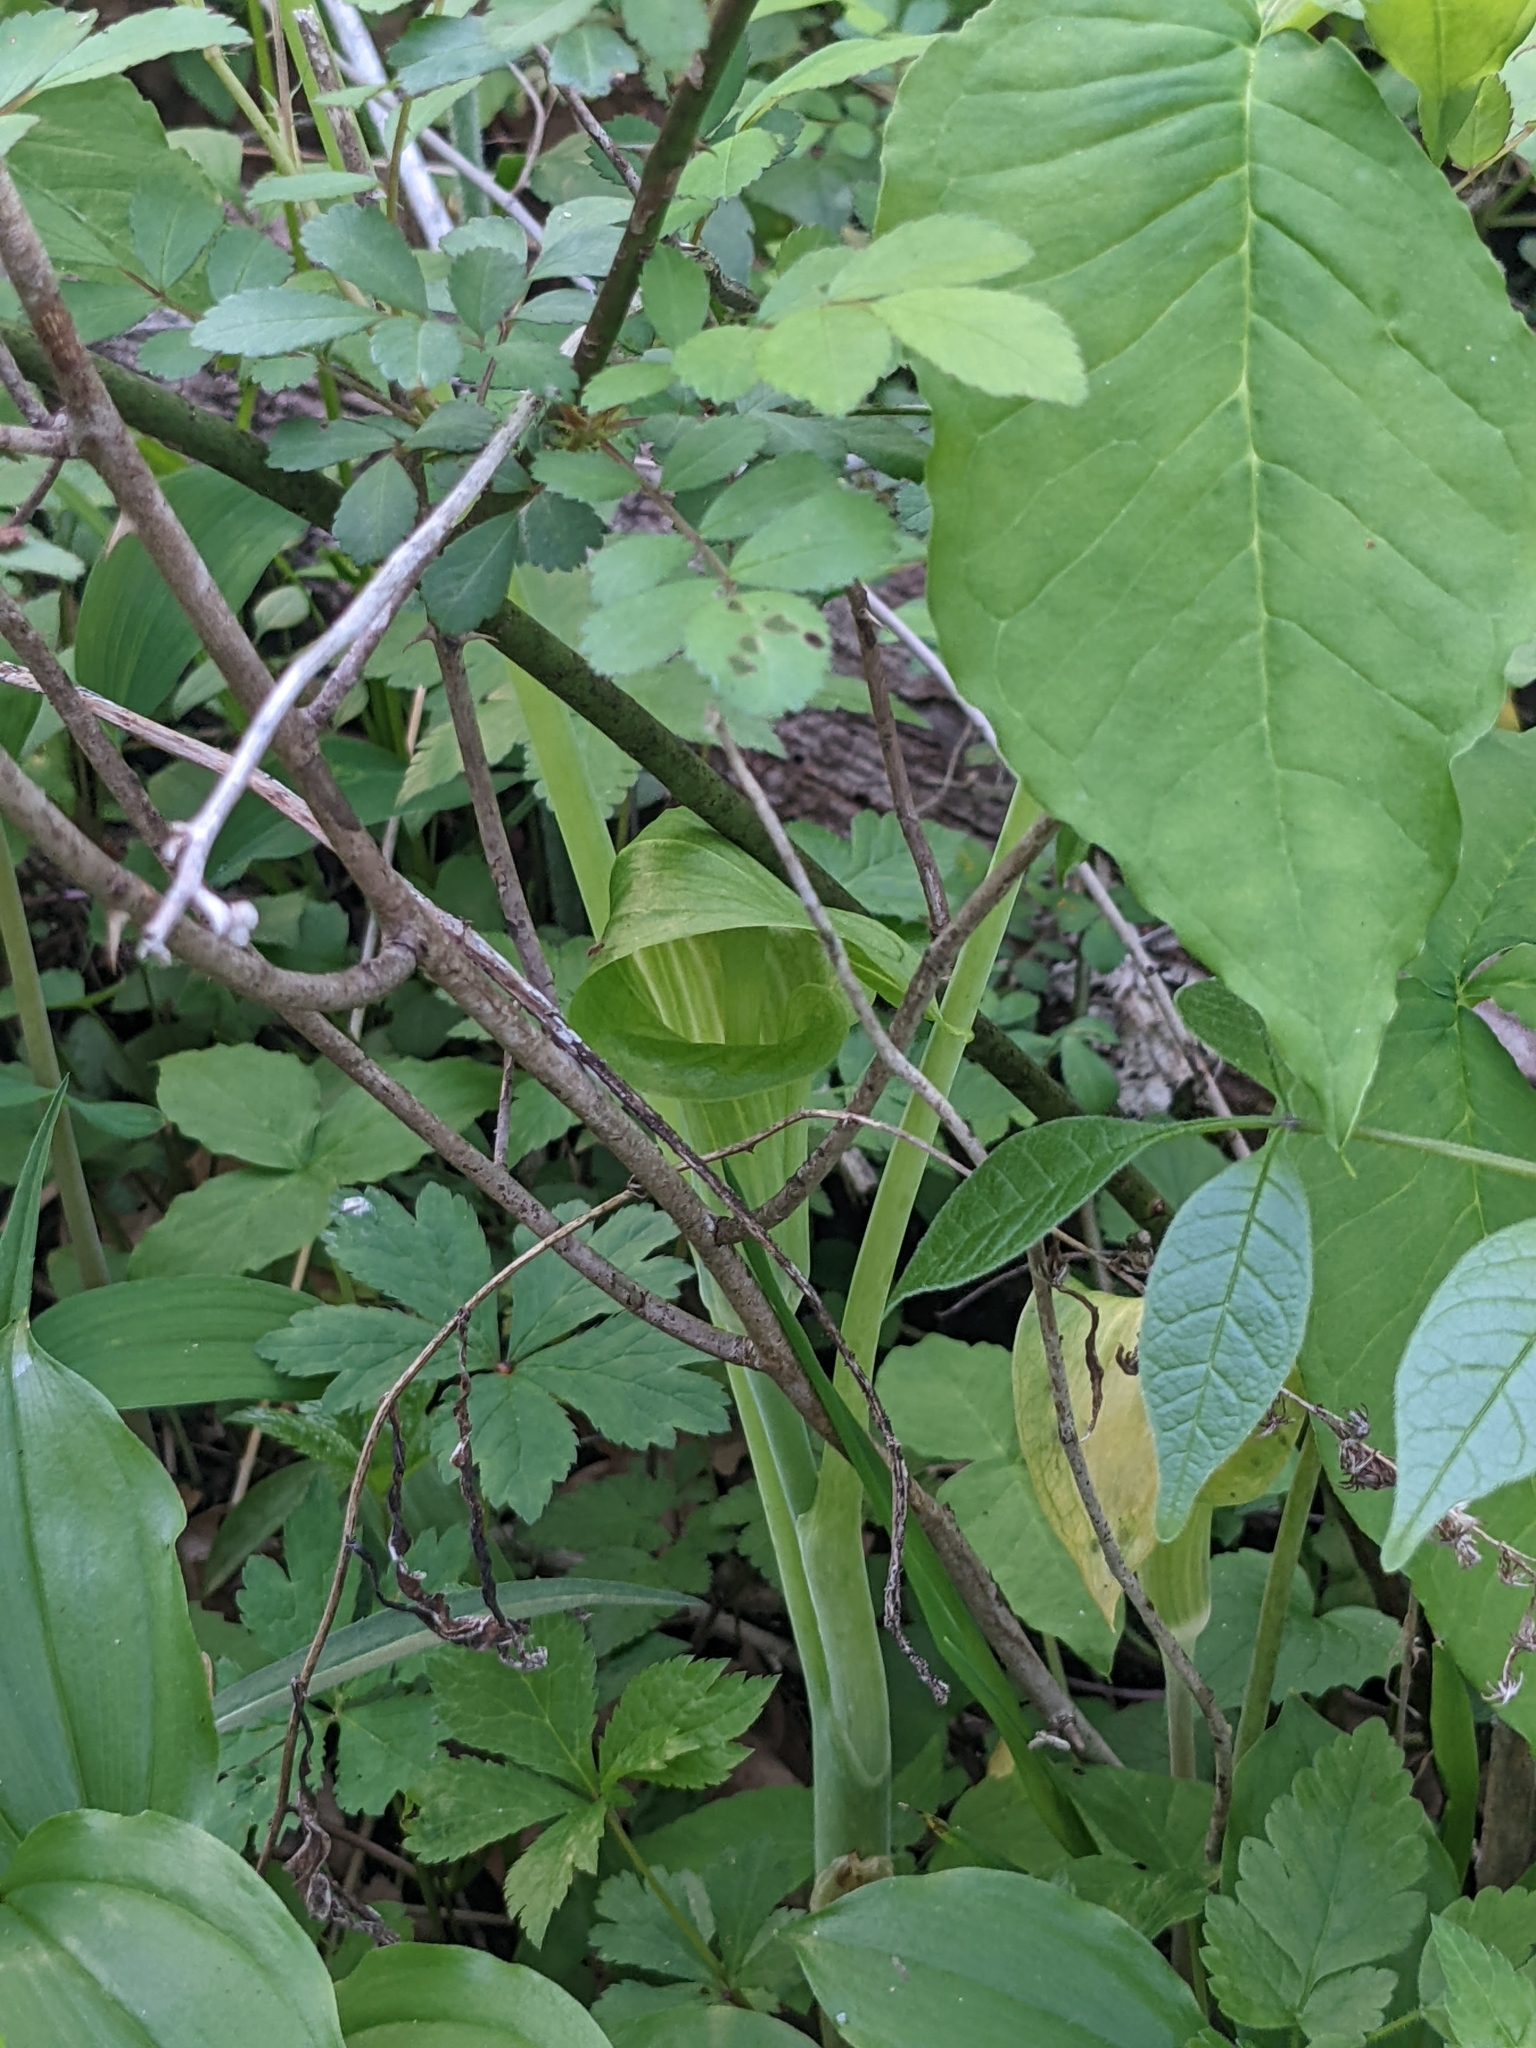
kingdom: Plantae
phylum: Tracheophyta
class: Liliopsida
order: Alismatales
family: Araceae
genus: Arisaema
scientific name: Arisaema triphyllum
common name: Jack-in-the-pulpit
